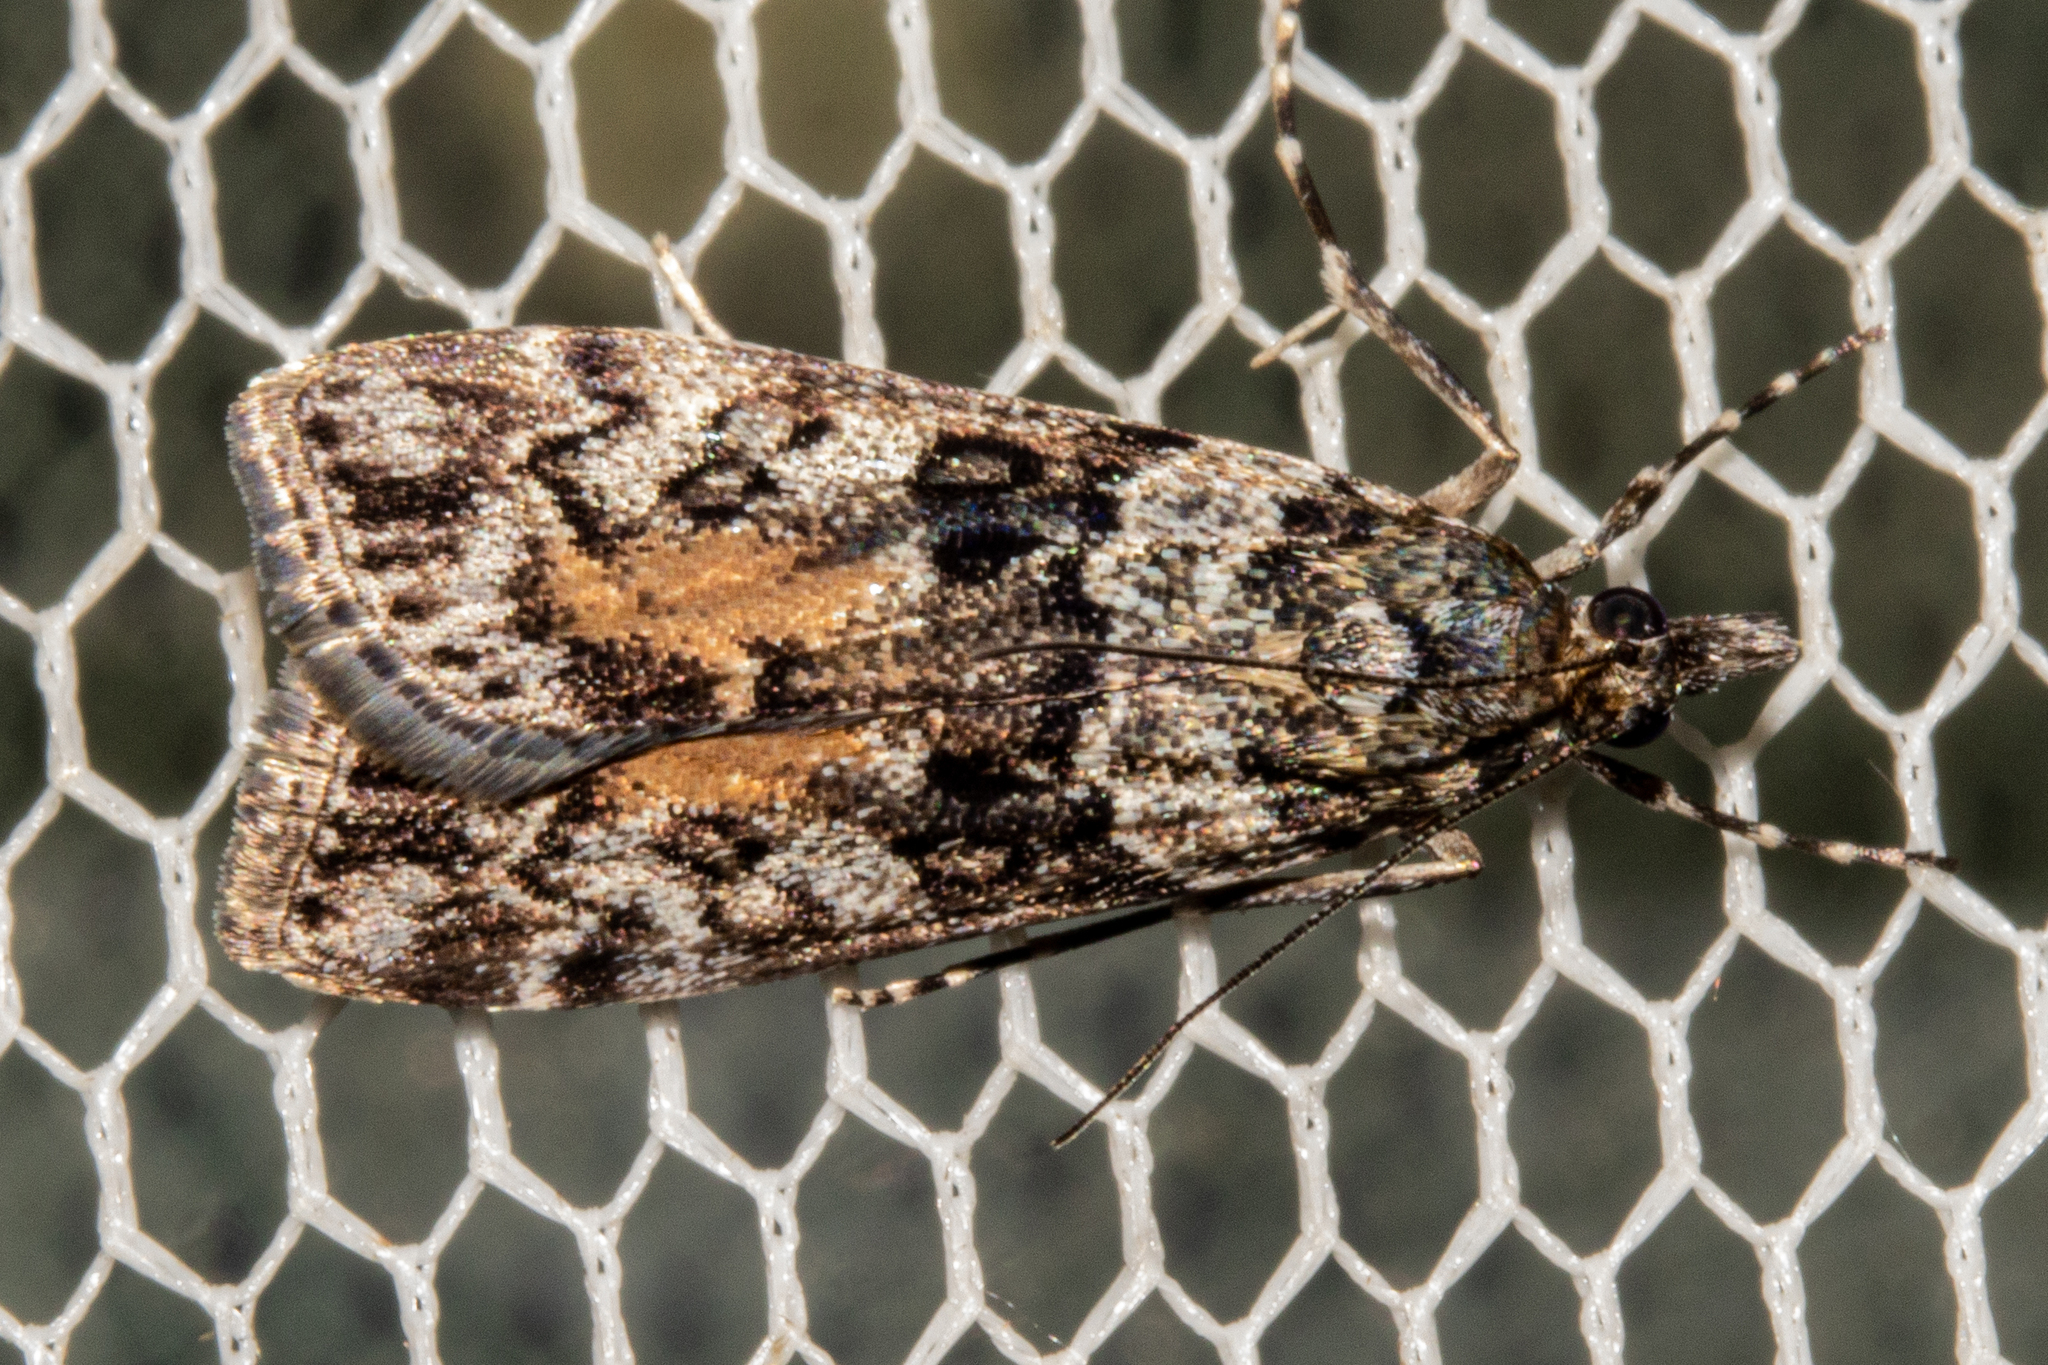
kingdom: Animalia
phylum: Arthropoda
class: Insecta
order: Lepidoptera
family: Crambidae
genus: Eudonia
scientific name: Eudonia submarginalis
